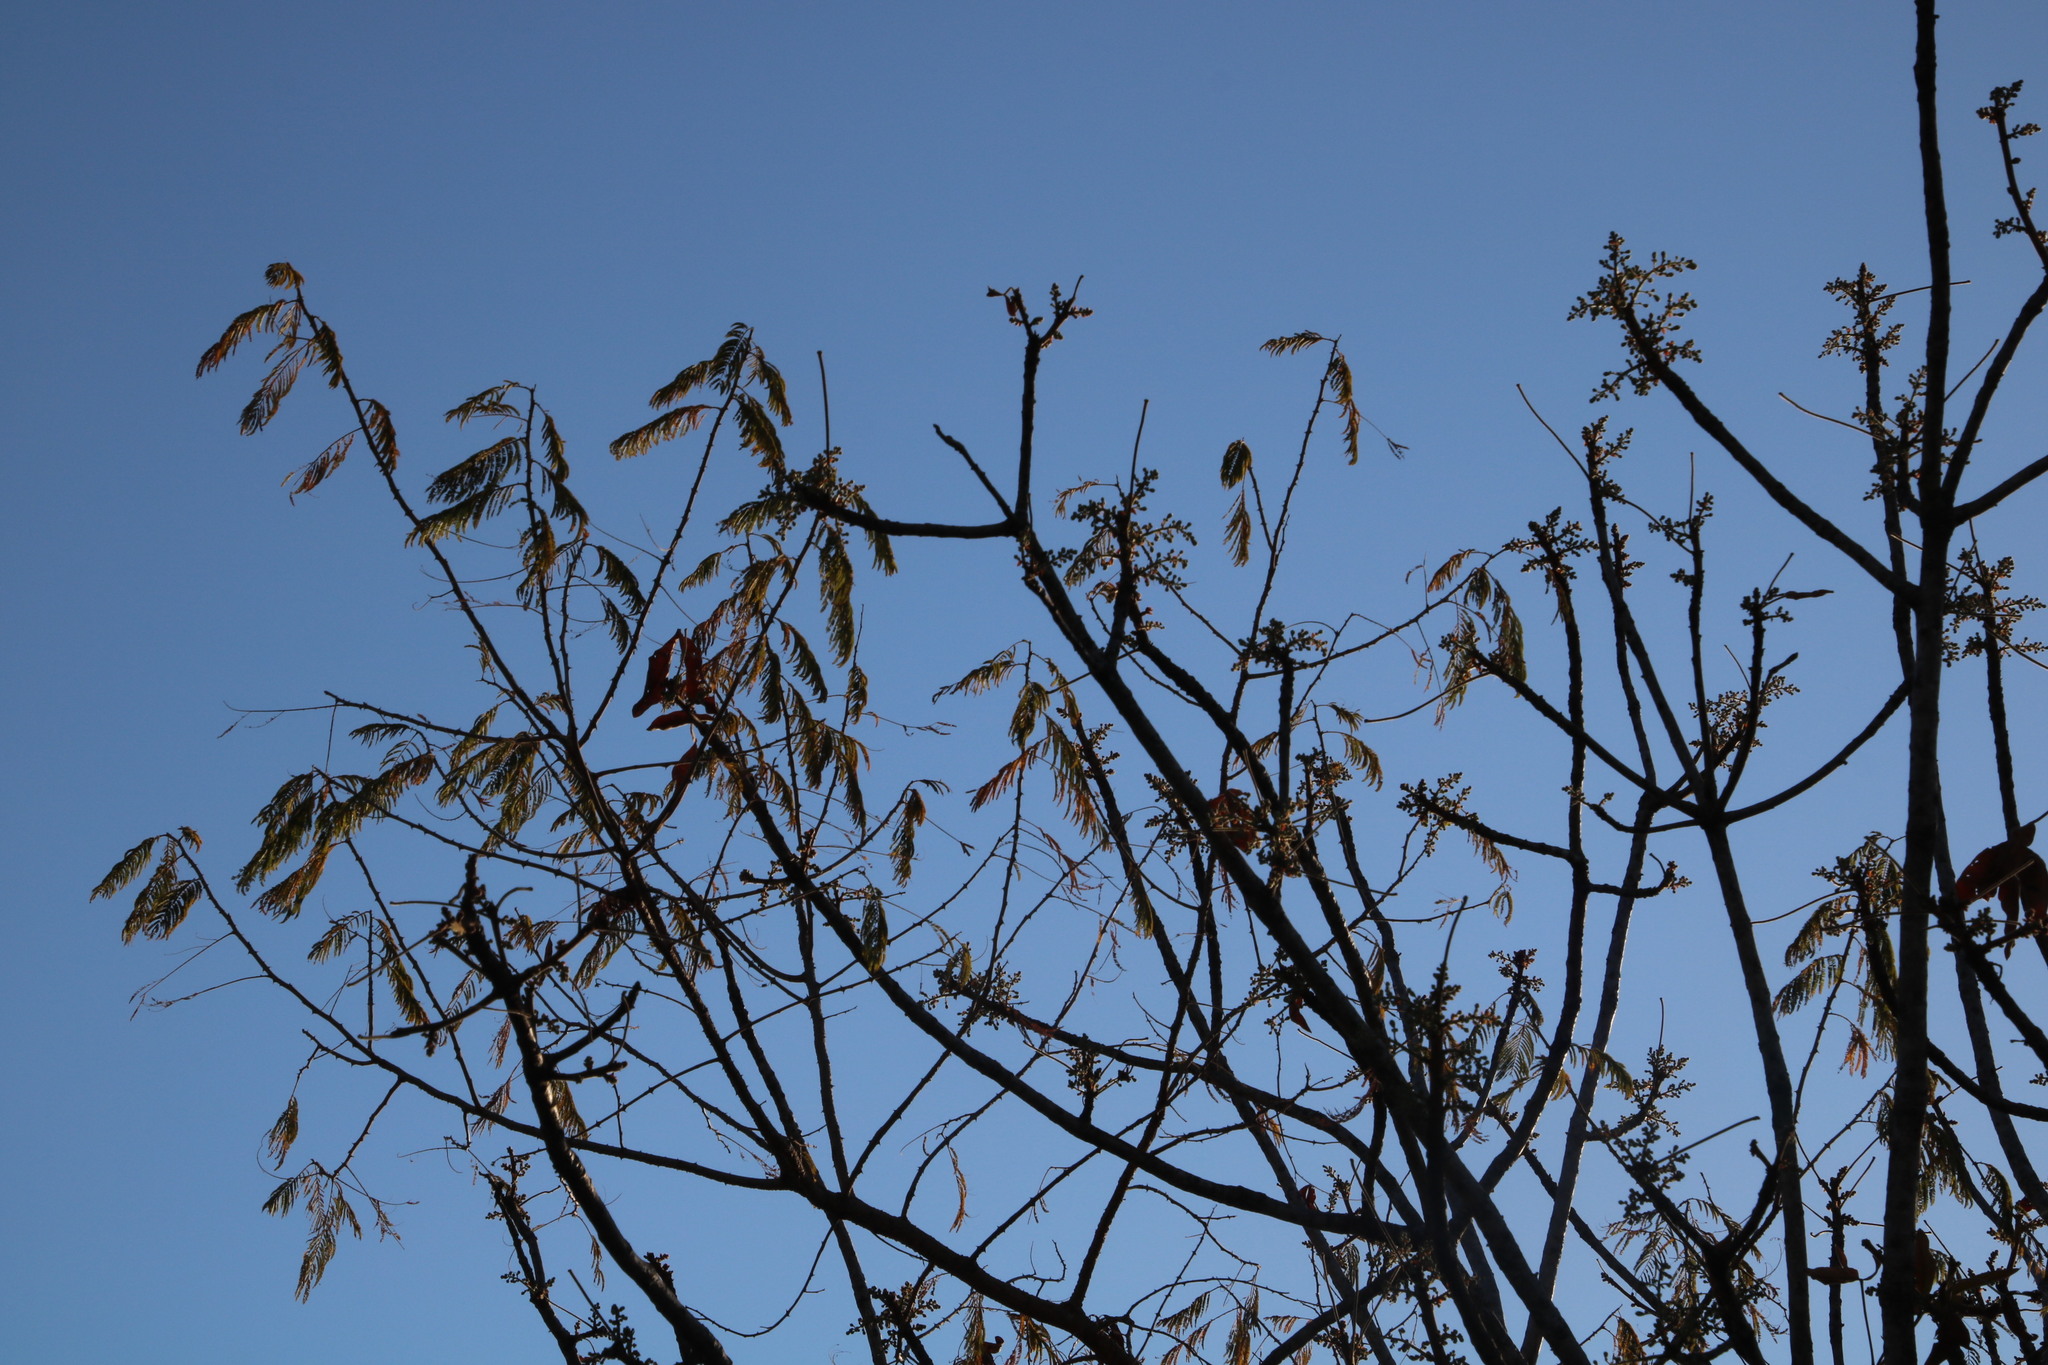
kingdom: Plantae
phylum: Tracheophyta
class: Magnoliopsida
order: Sapindales
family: Anacardiaceae
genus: Lannea
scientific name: Lannea discolor
